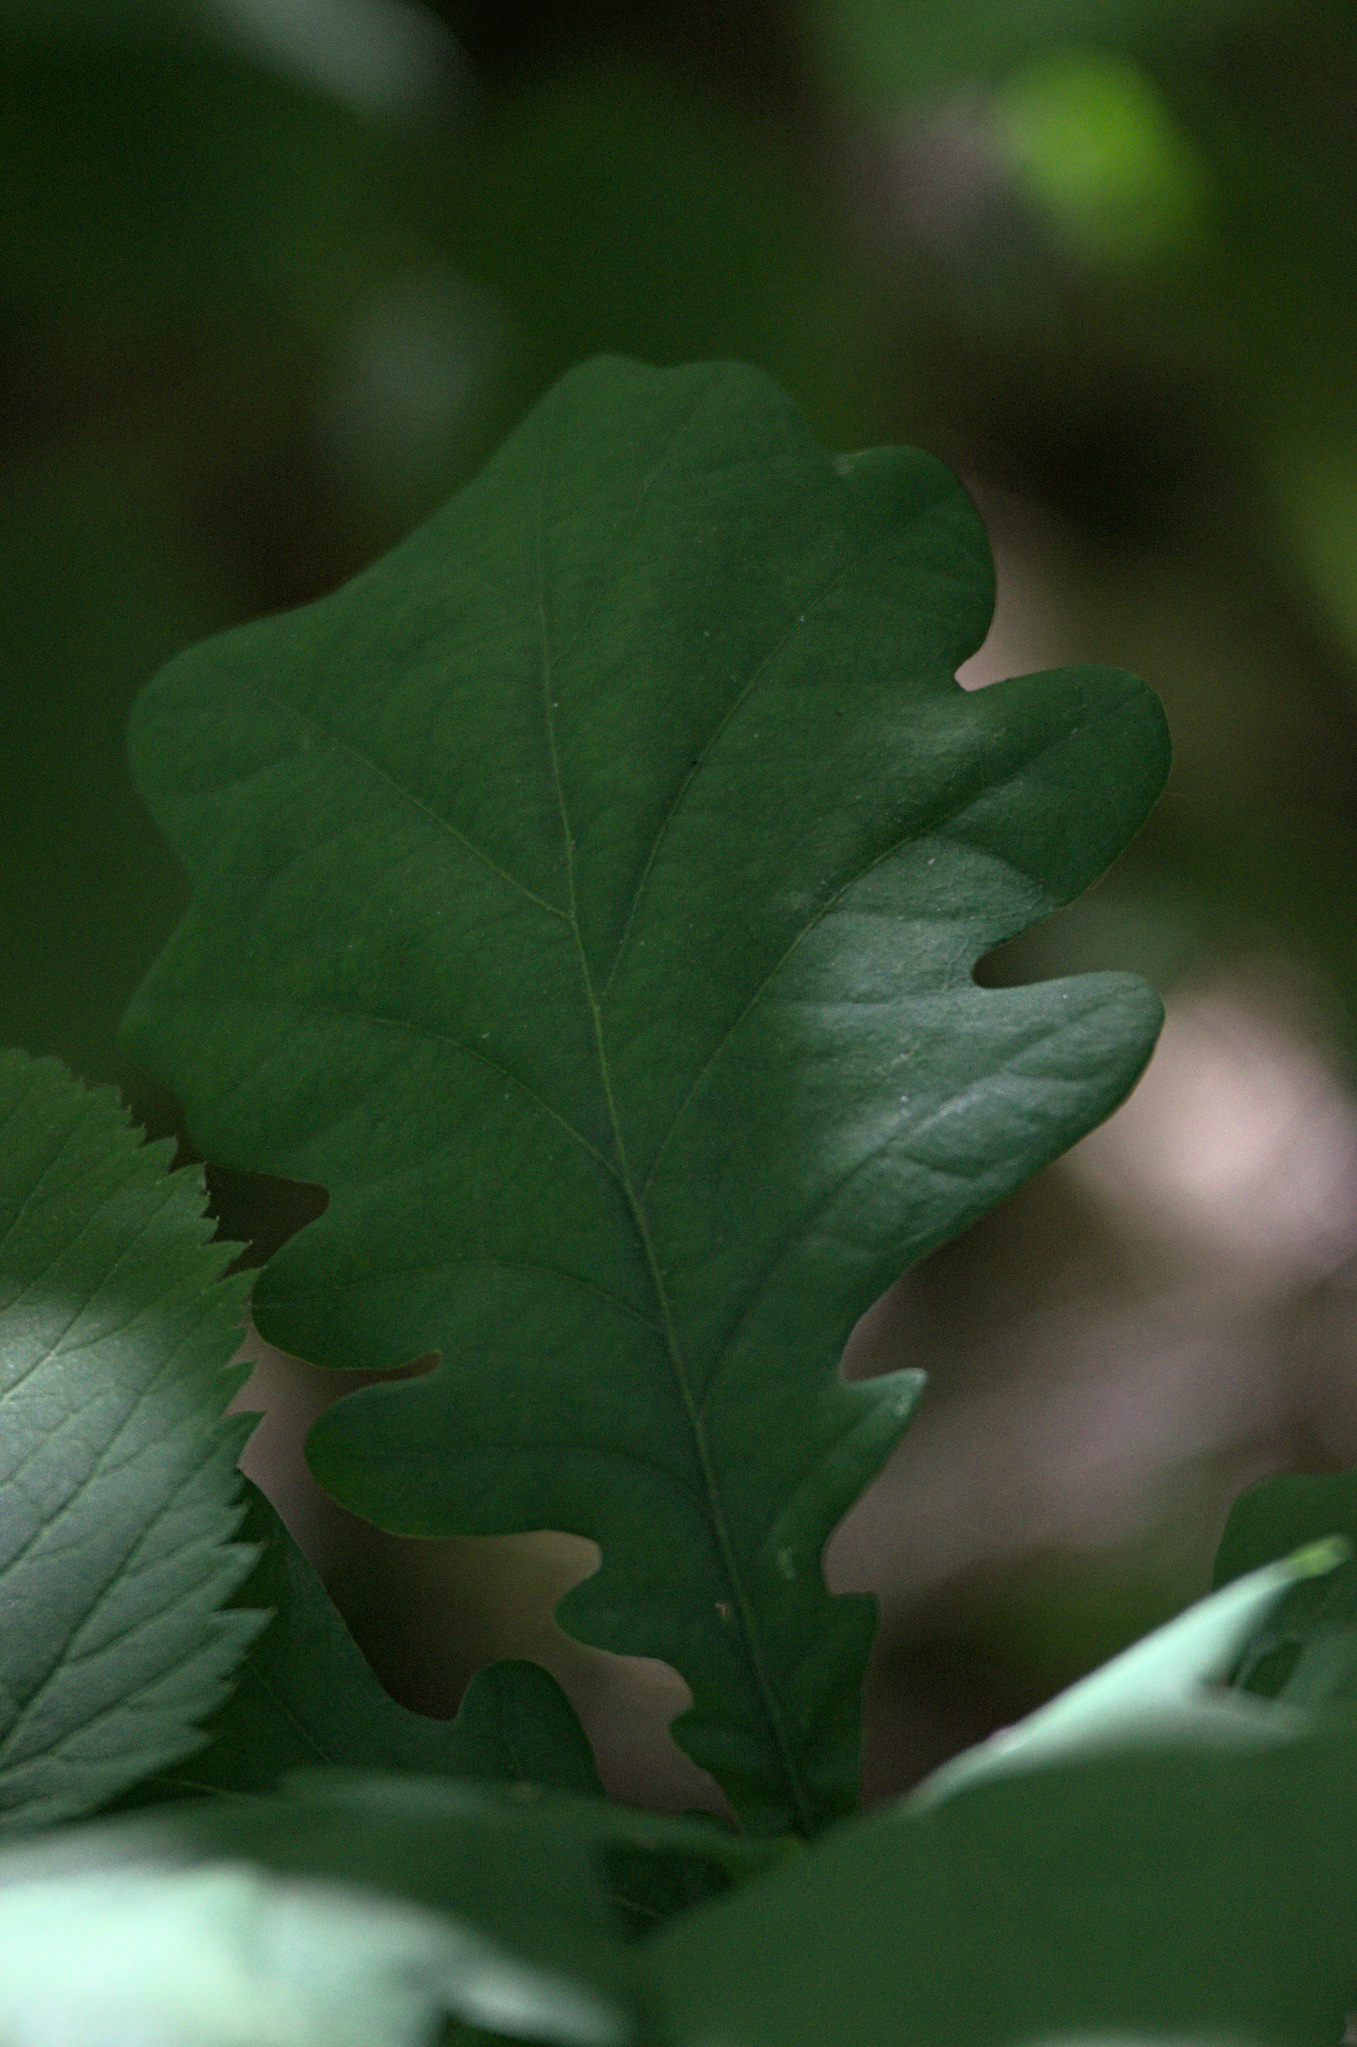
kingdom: Plantae
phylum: Tracheophyta
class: Magnoliopsida
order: Fagales
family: Fagaceae
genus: Quercus
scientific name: Quercus robur
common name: Pedunculate oak
